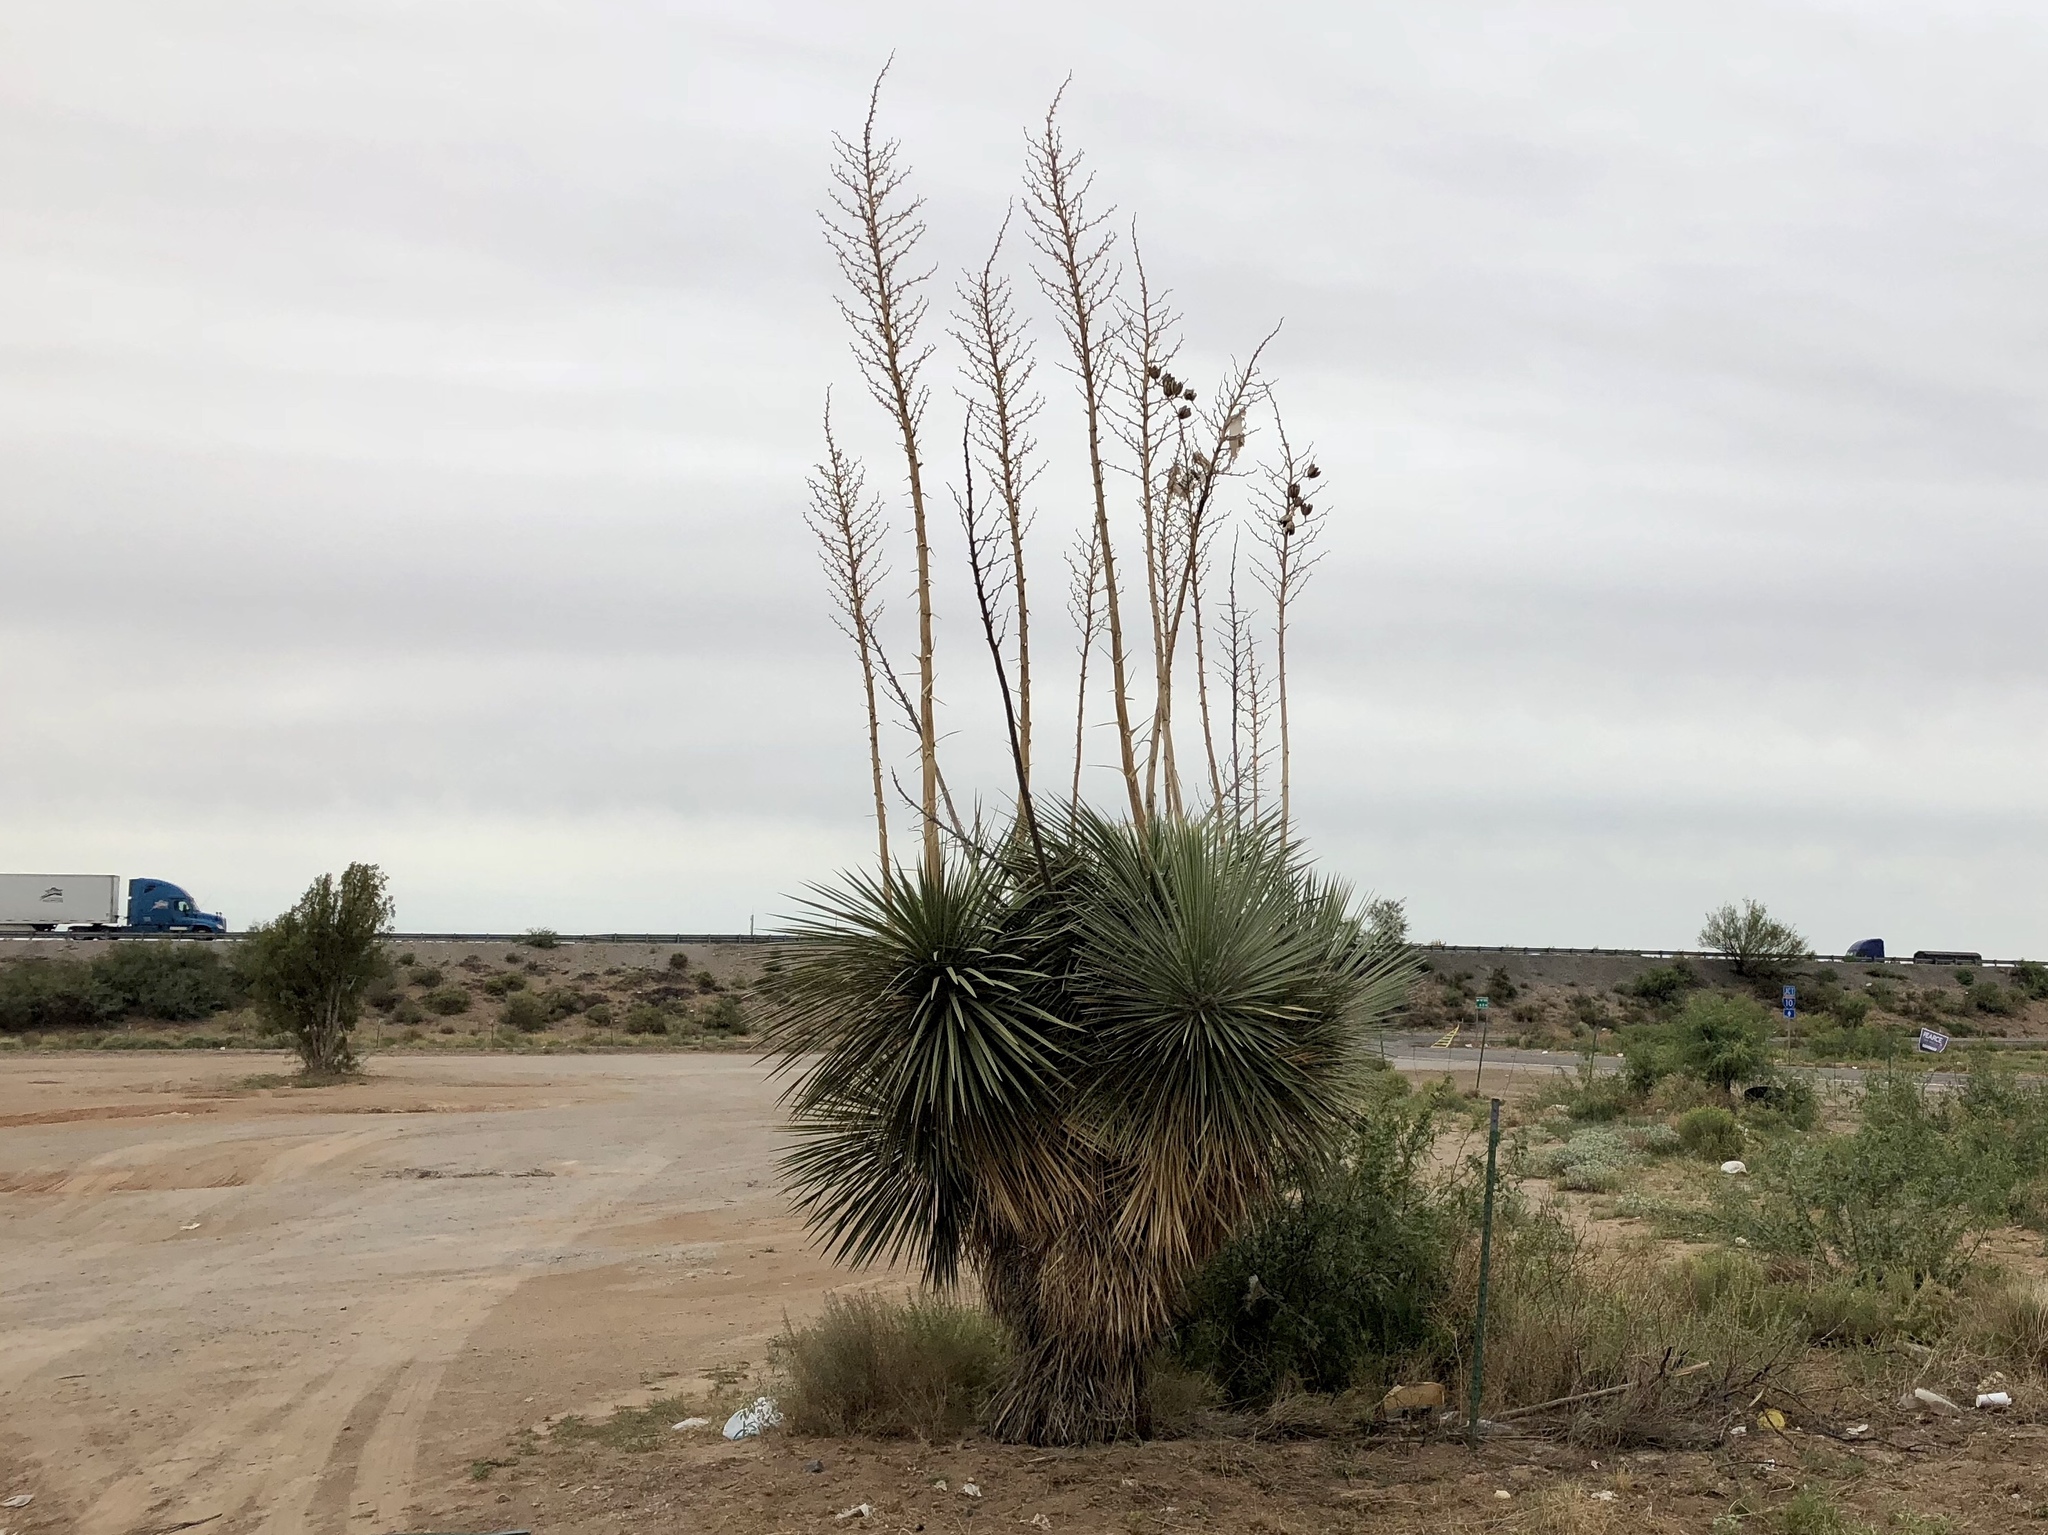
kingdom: Plantae
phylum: Tracheophyta
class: Liliopsida
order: Asparagales
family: Asparagaceae
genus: Yucca
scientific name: Yucca elata
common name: Palmella
